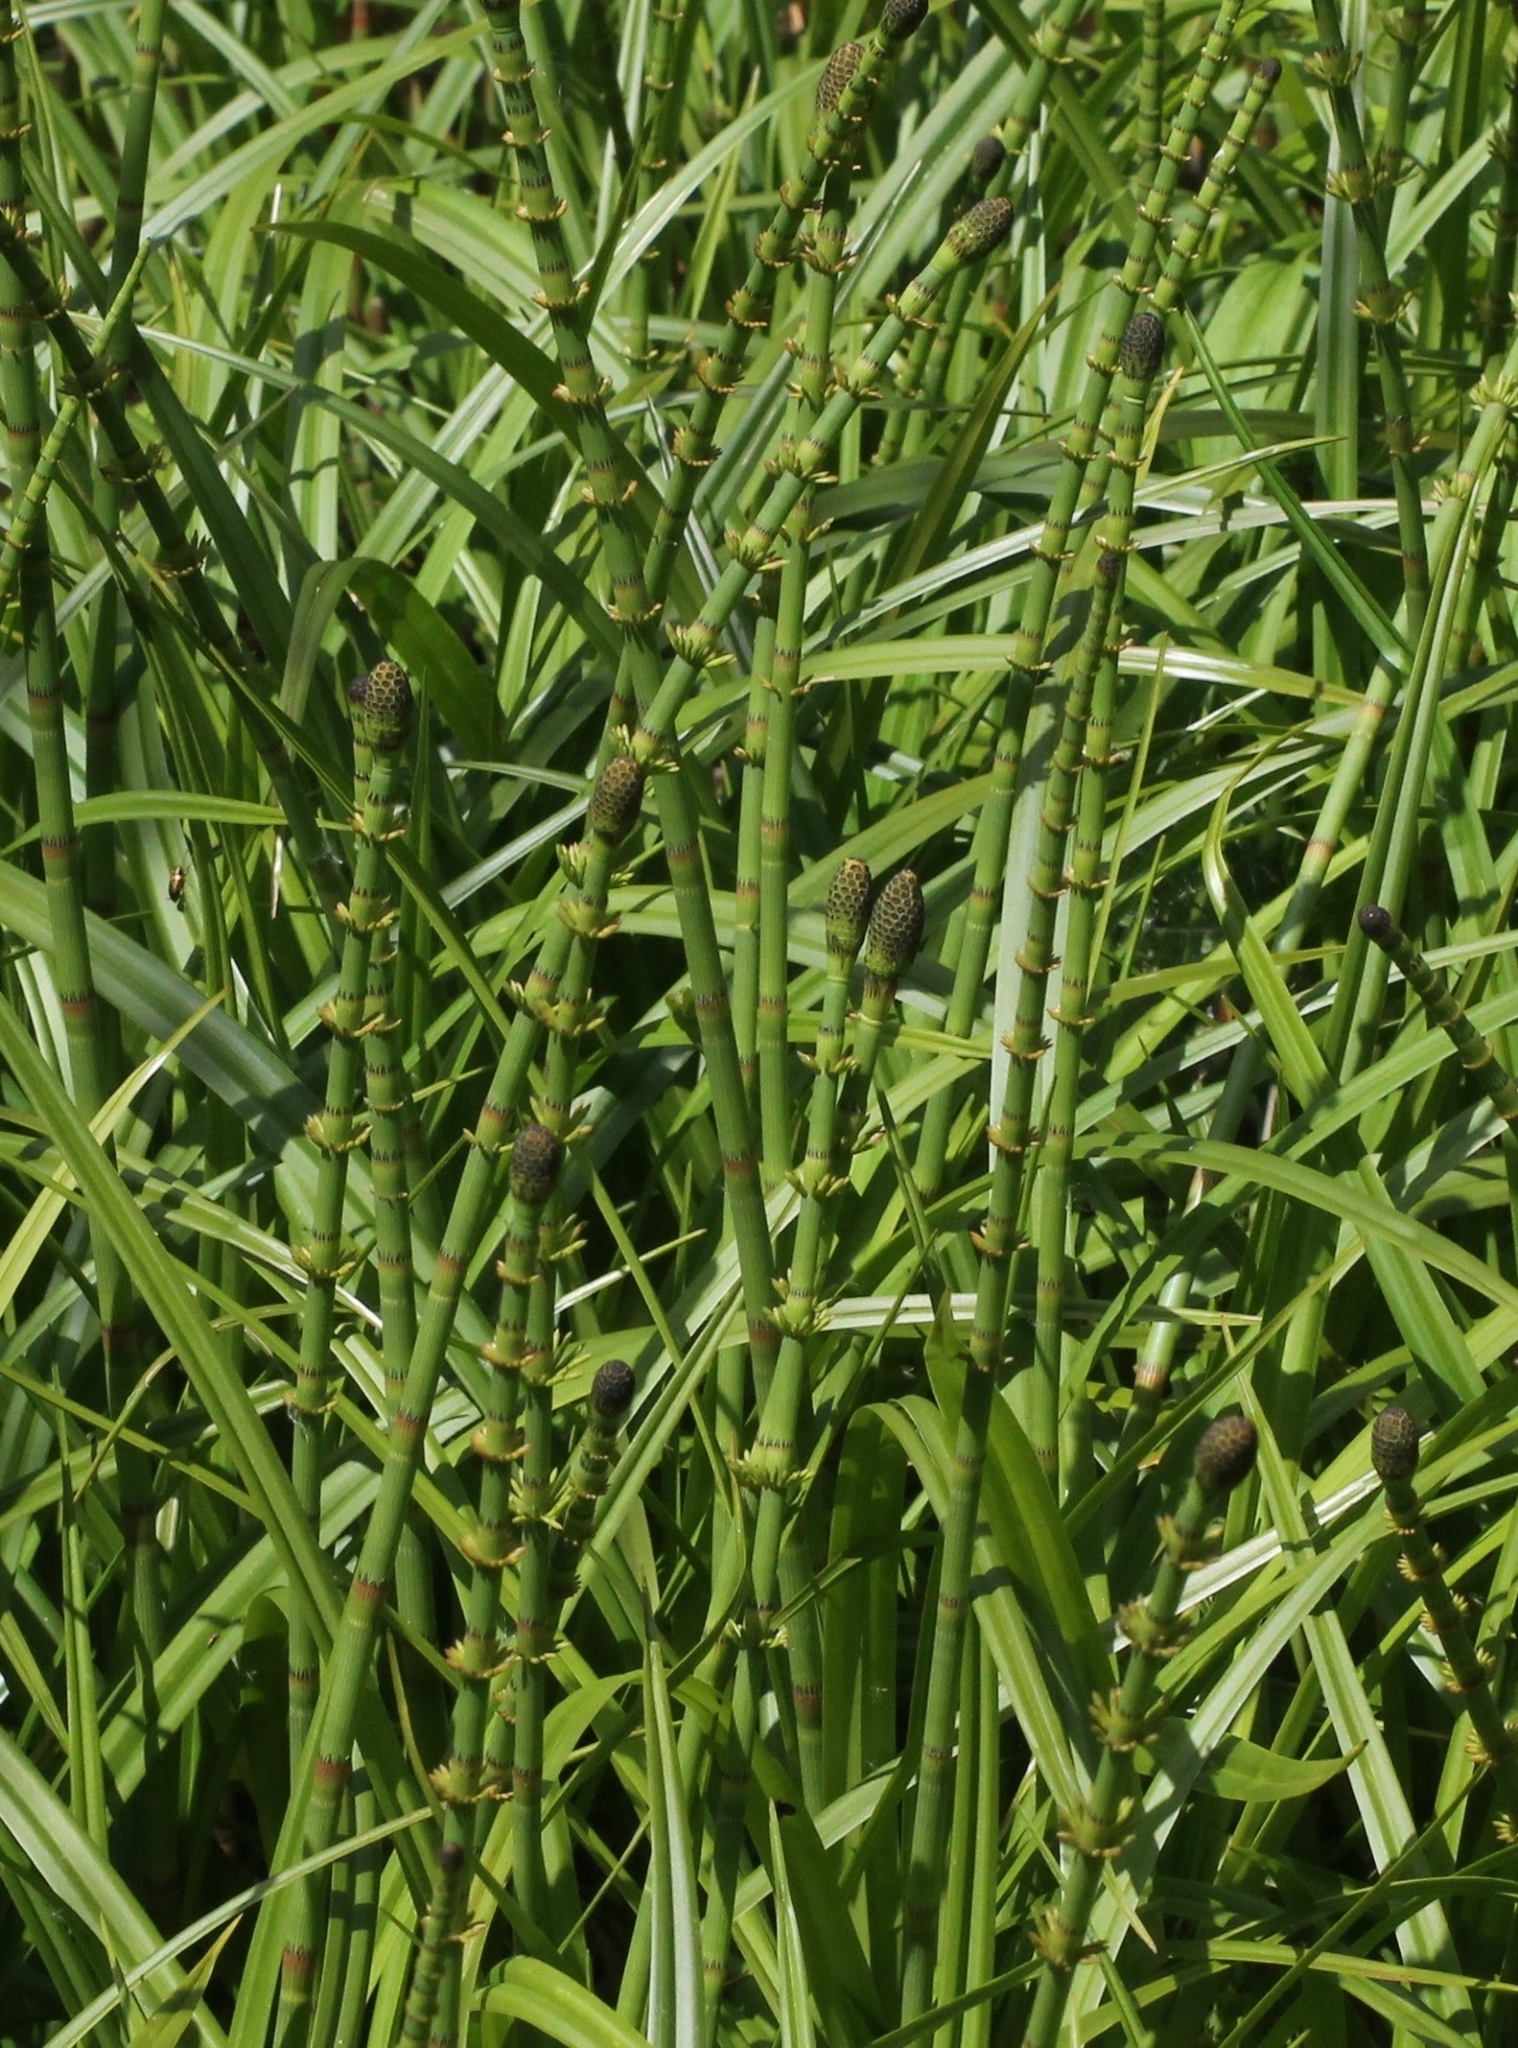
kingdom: Plantae
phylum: Tracheophyta
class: Polypodiopsida
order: Equisetales
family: Equisetaceae
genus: Equisetum
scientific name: Equisetum fluviatile
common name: Water horsetail
